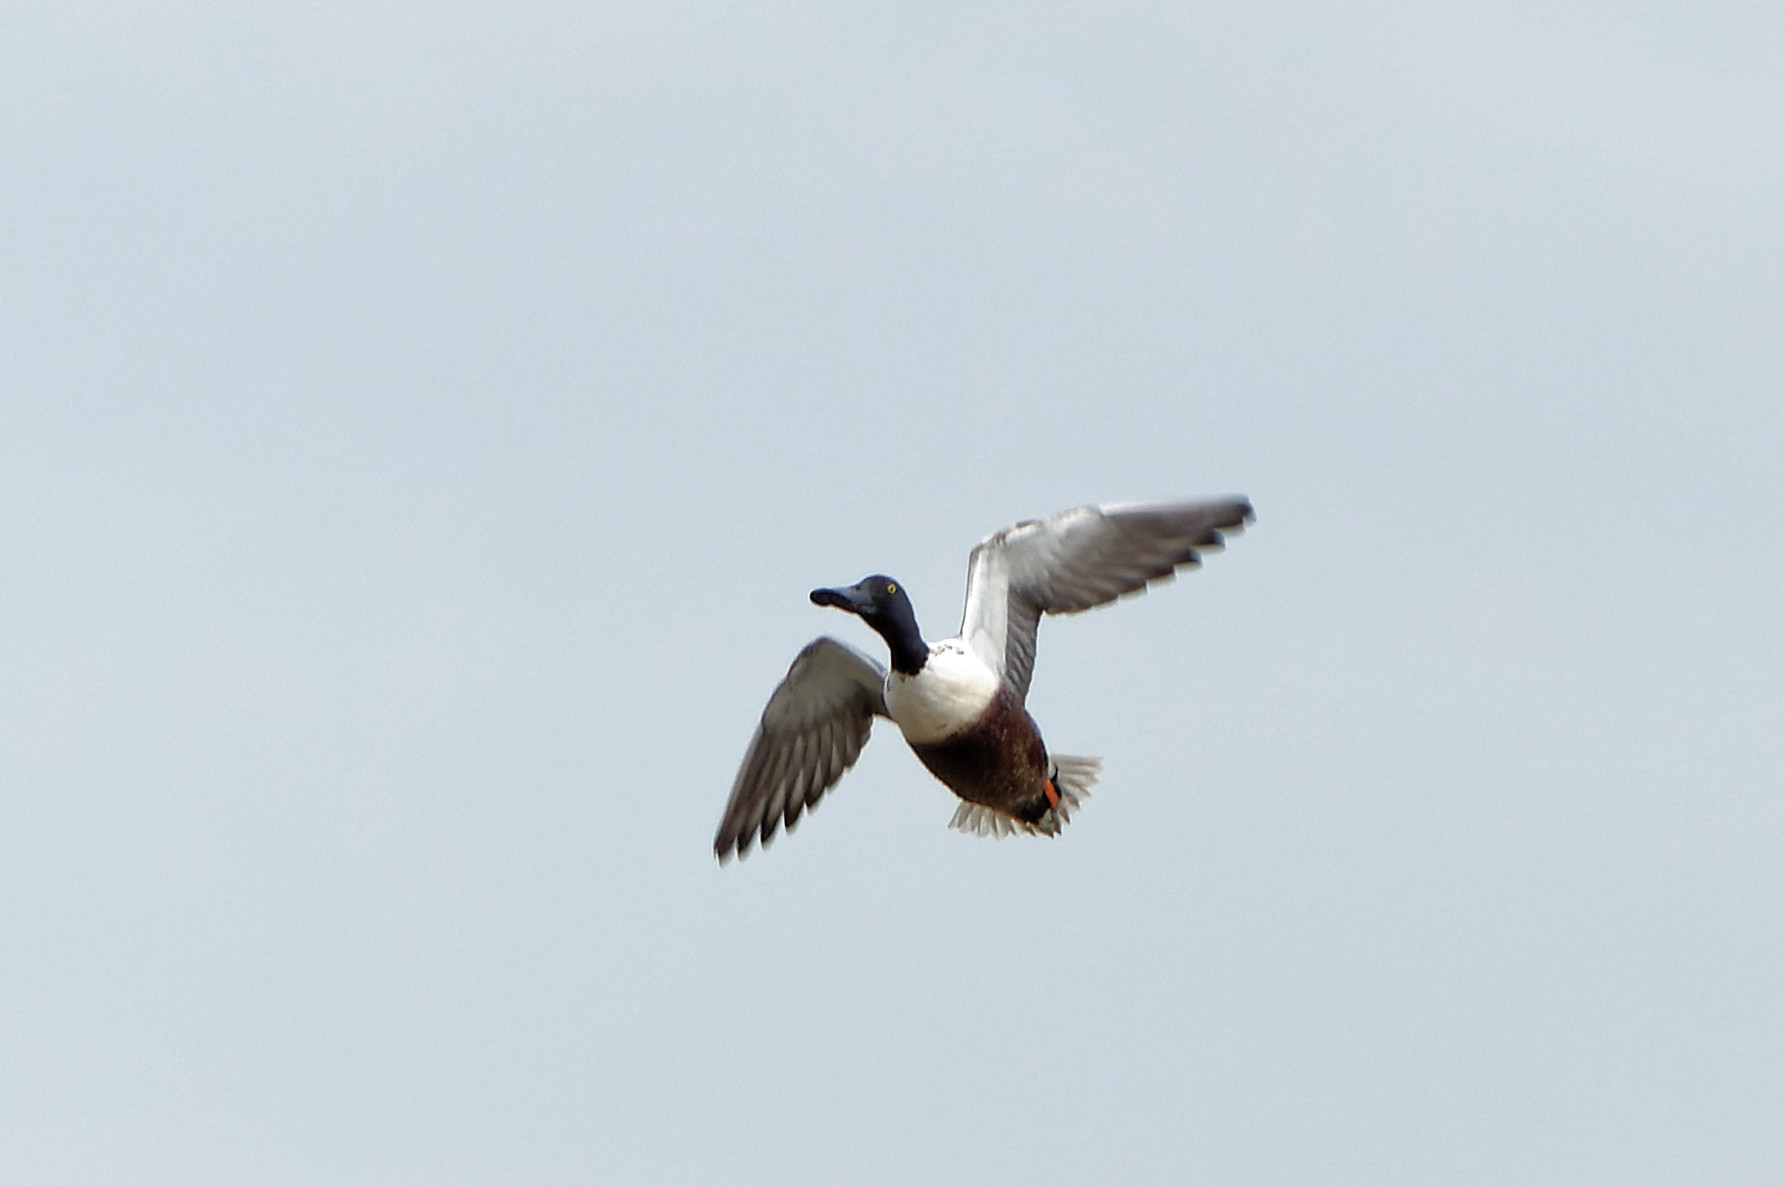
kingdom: Animalia
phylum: Chordata
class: Aves
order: Anseriformes
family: Anatidae
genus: Spatula
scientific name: Spatula clypeata
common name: Northern shoveler
